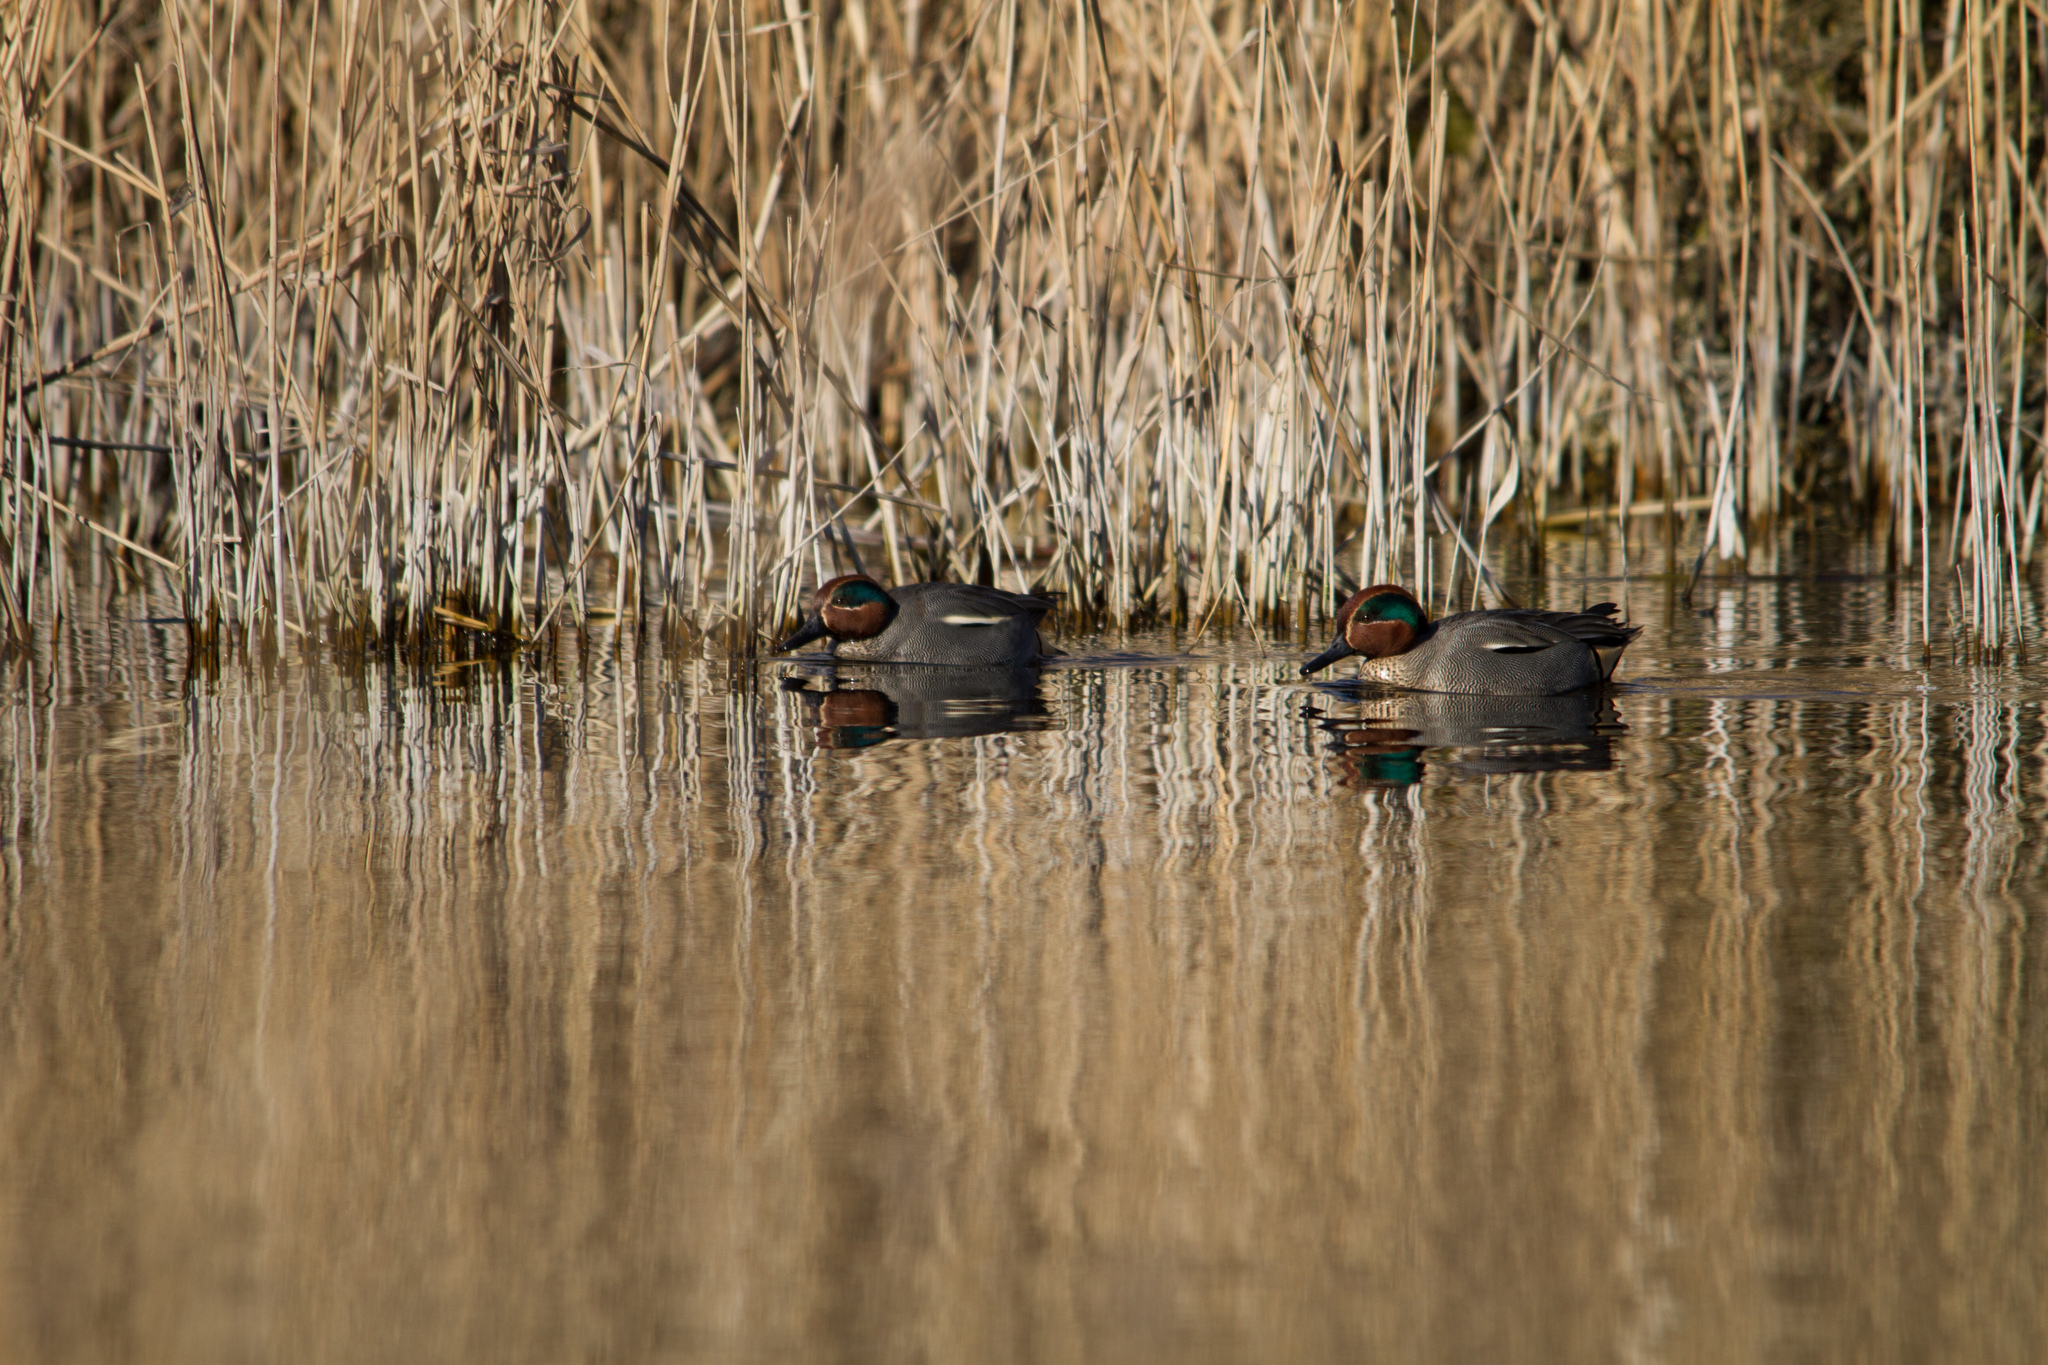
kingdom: Animalia
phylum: Chordata
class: Aves
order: Anseriformes
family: Anatidae
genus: Anas
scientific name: Anas crecca
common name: Eurasian teal
